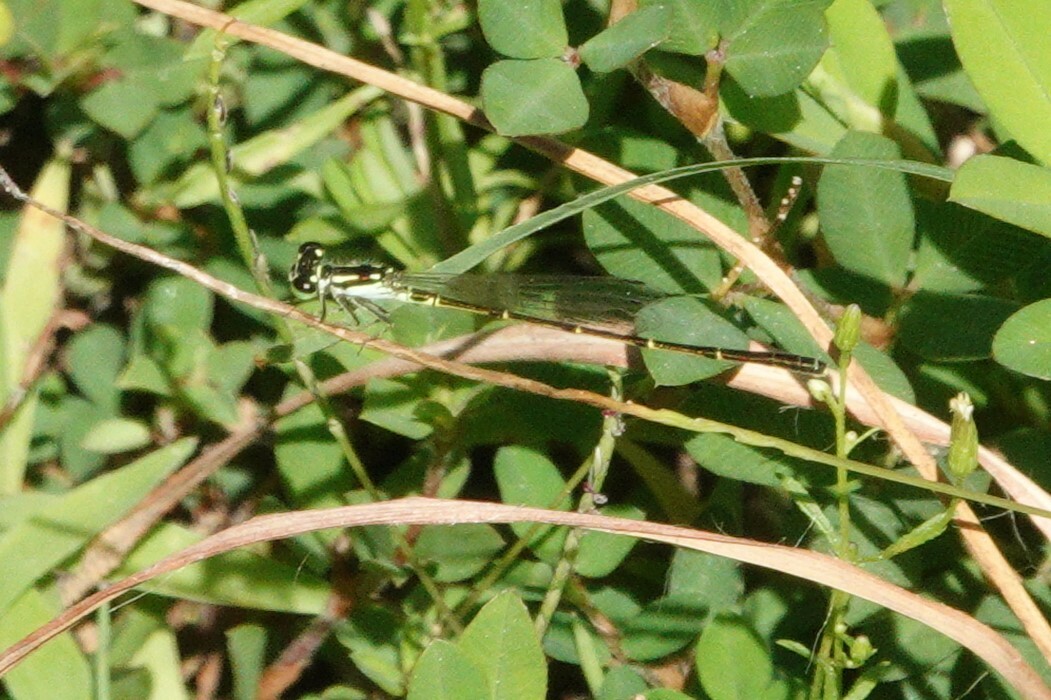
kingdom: Animalia
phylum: Arthropoda
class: Insecta
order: Odonata
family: Coenagrionidae
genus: Ischnura
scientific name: Ischnura posita
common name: Fragile forktail
